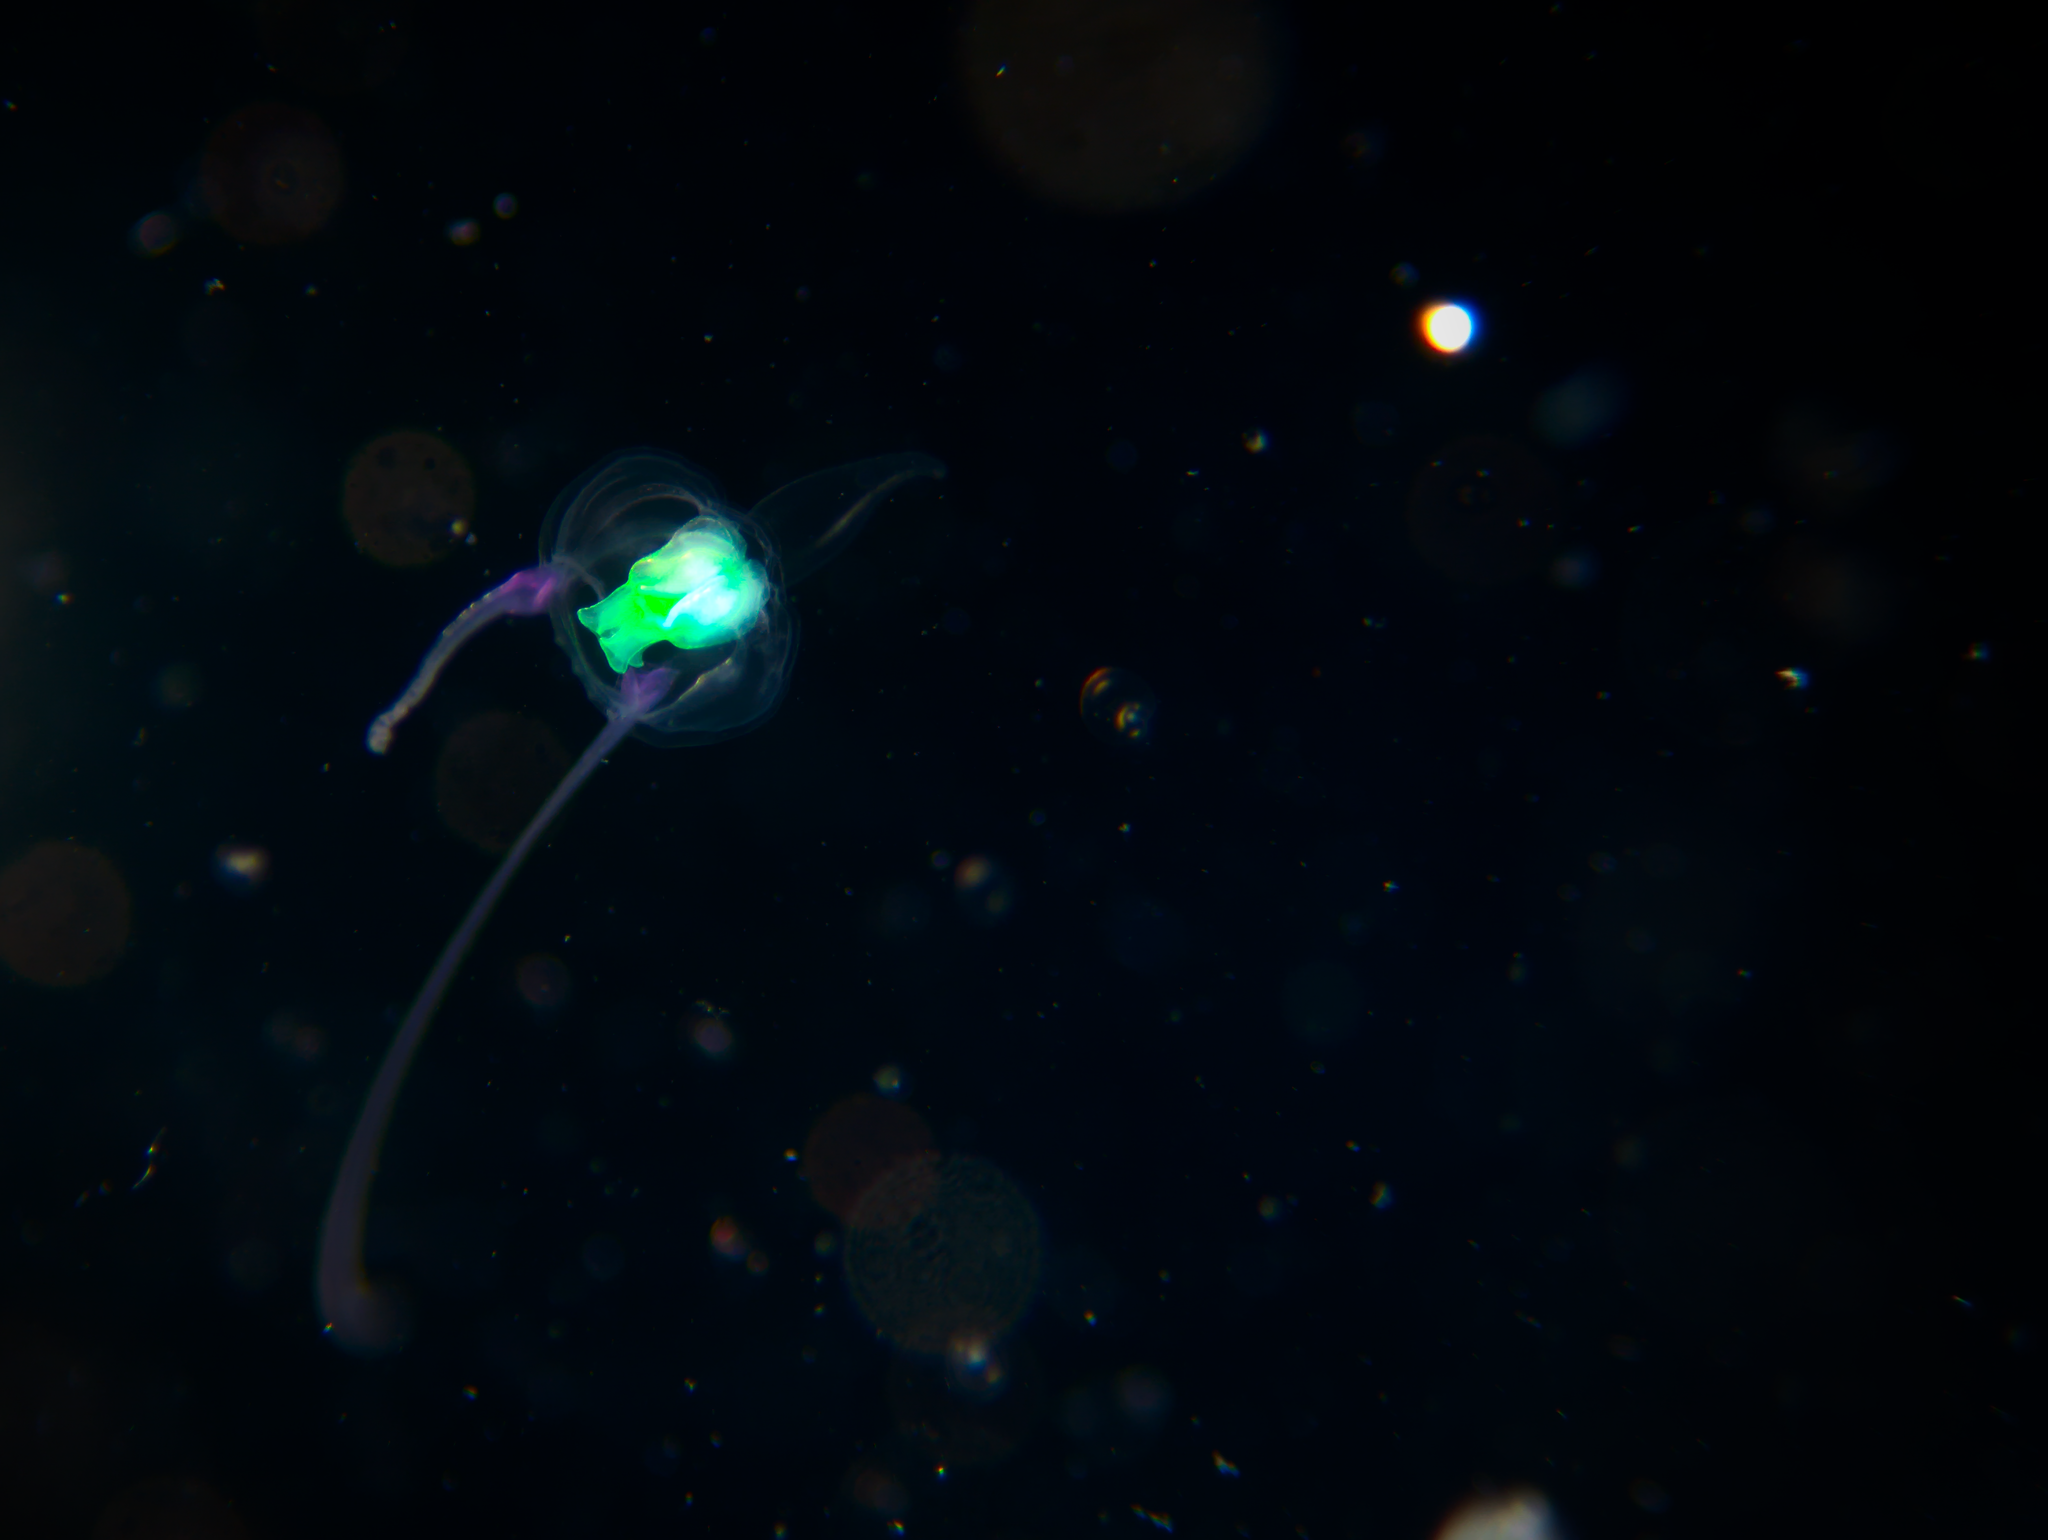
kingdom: Animalia
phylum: Cnidaria
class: Hydrozoa
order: Anthoathecata
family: Pandeidae
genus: Amphinema
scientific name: Amphinema dinema
